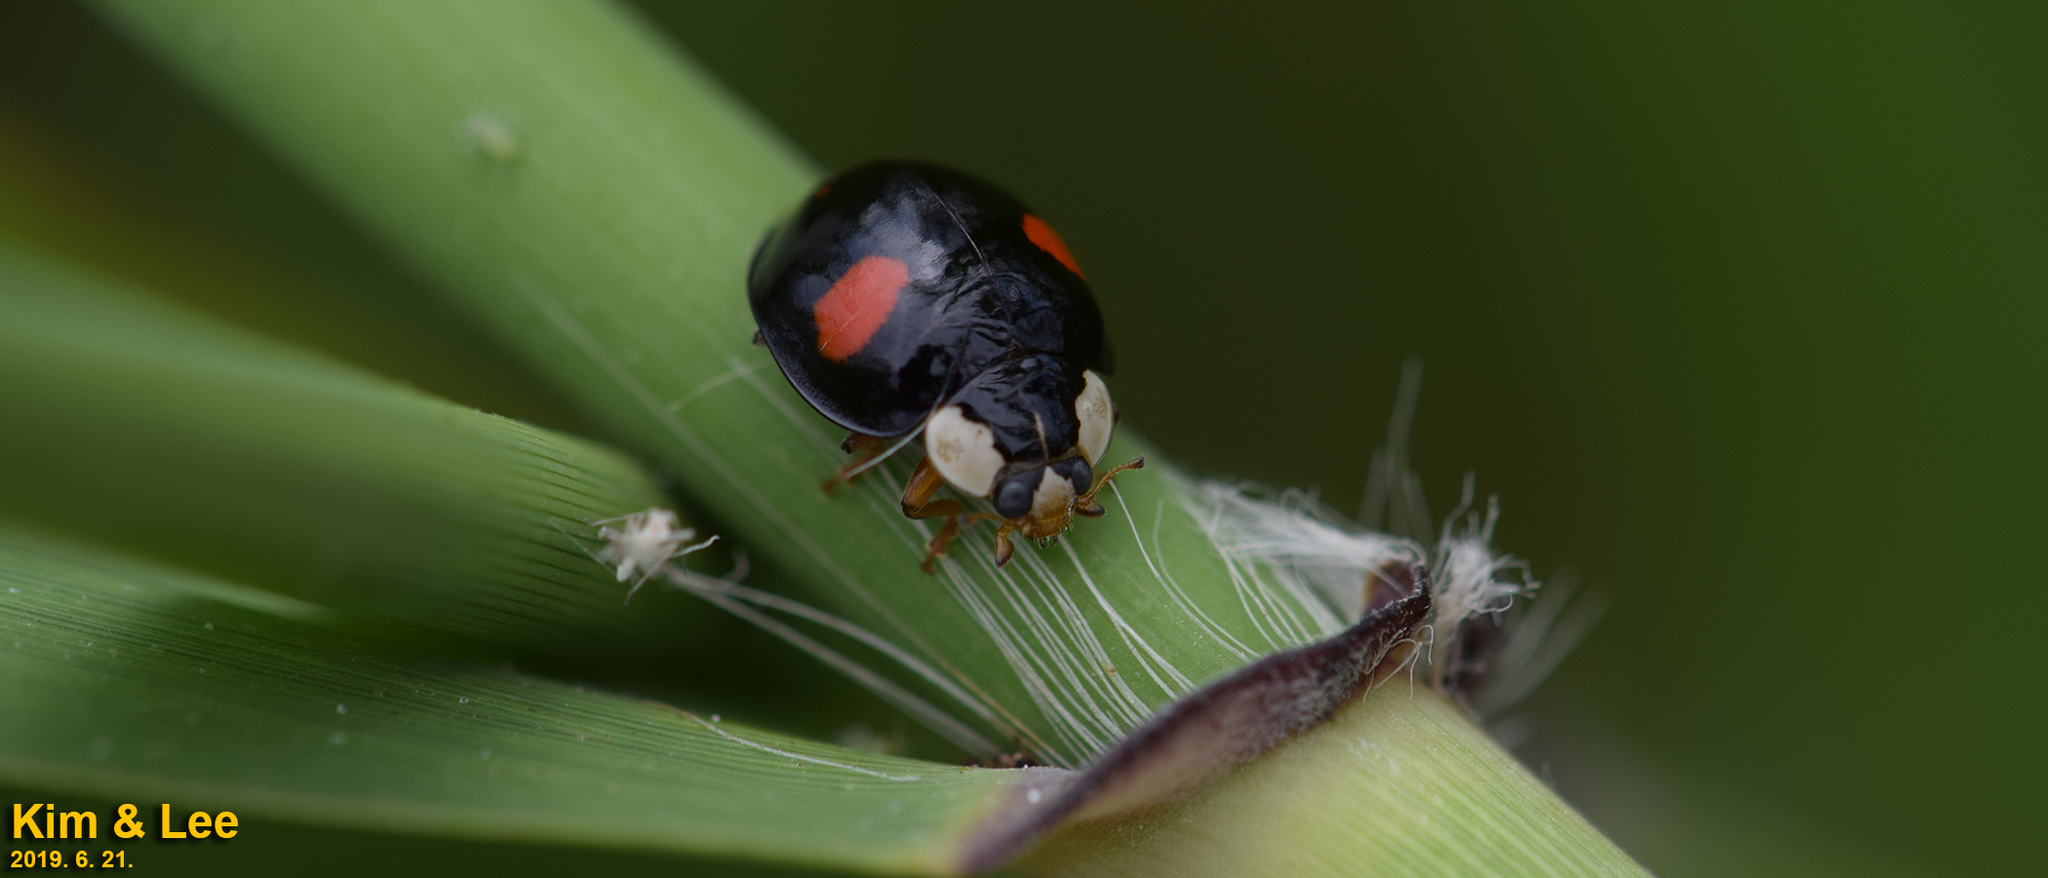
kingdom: Animalia
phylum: Arthropoda
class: Insecta
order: Coleoptera
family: Coccinellidae
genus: Harmonia
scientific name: Harmonia axyridis
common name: Harlequin ladybird
